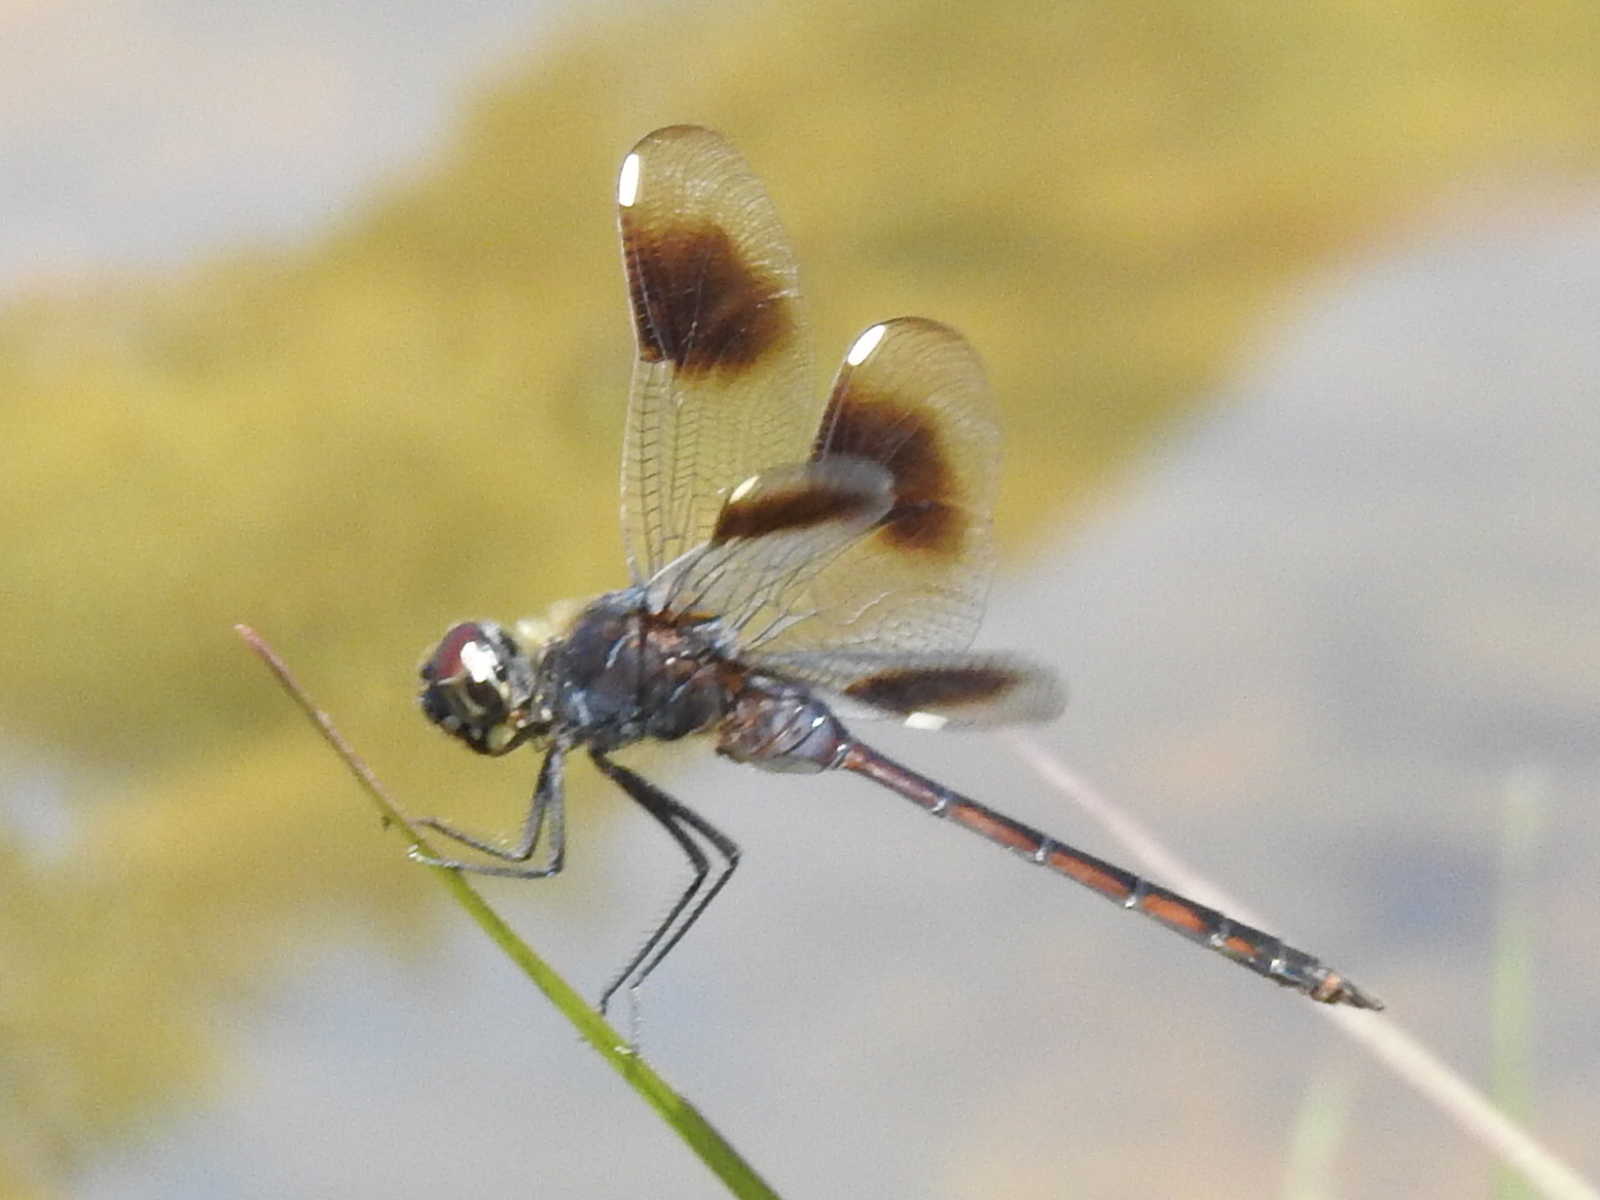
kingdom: Animalia
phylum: Arthropoda
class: Insecta
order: Odonata
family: Libellulidae
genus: Brachymesia
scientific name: Brachymesia gravida
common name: Four-spotted pennant
